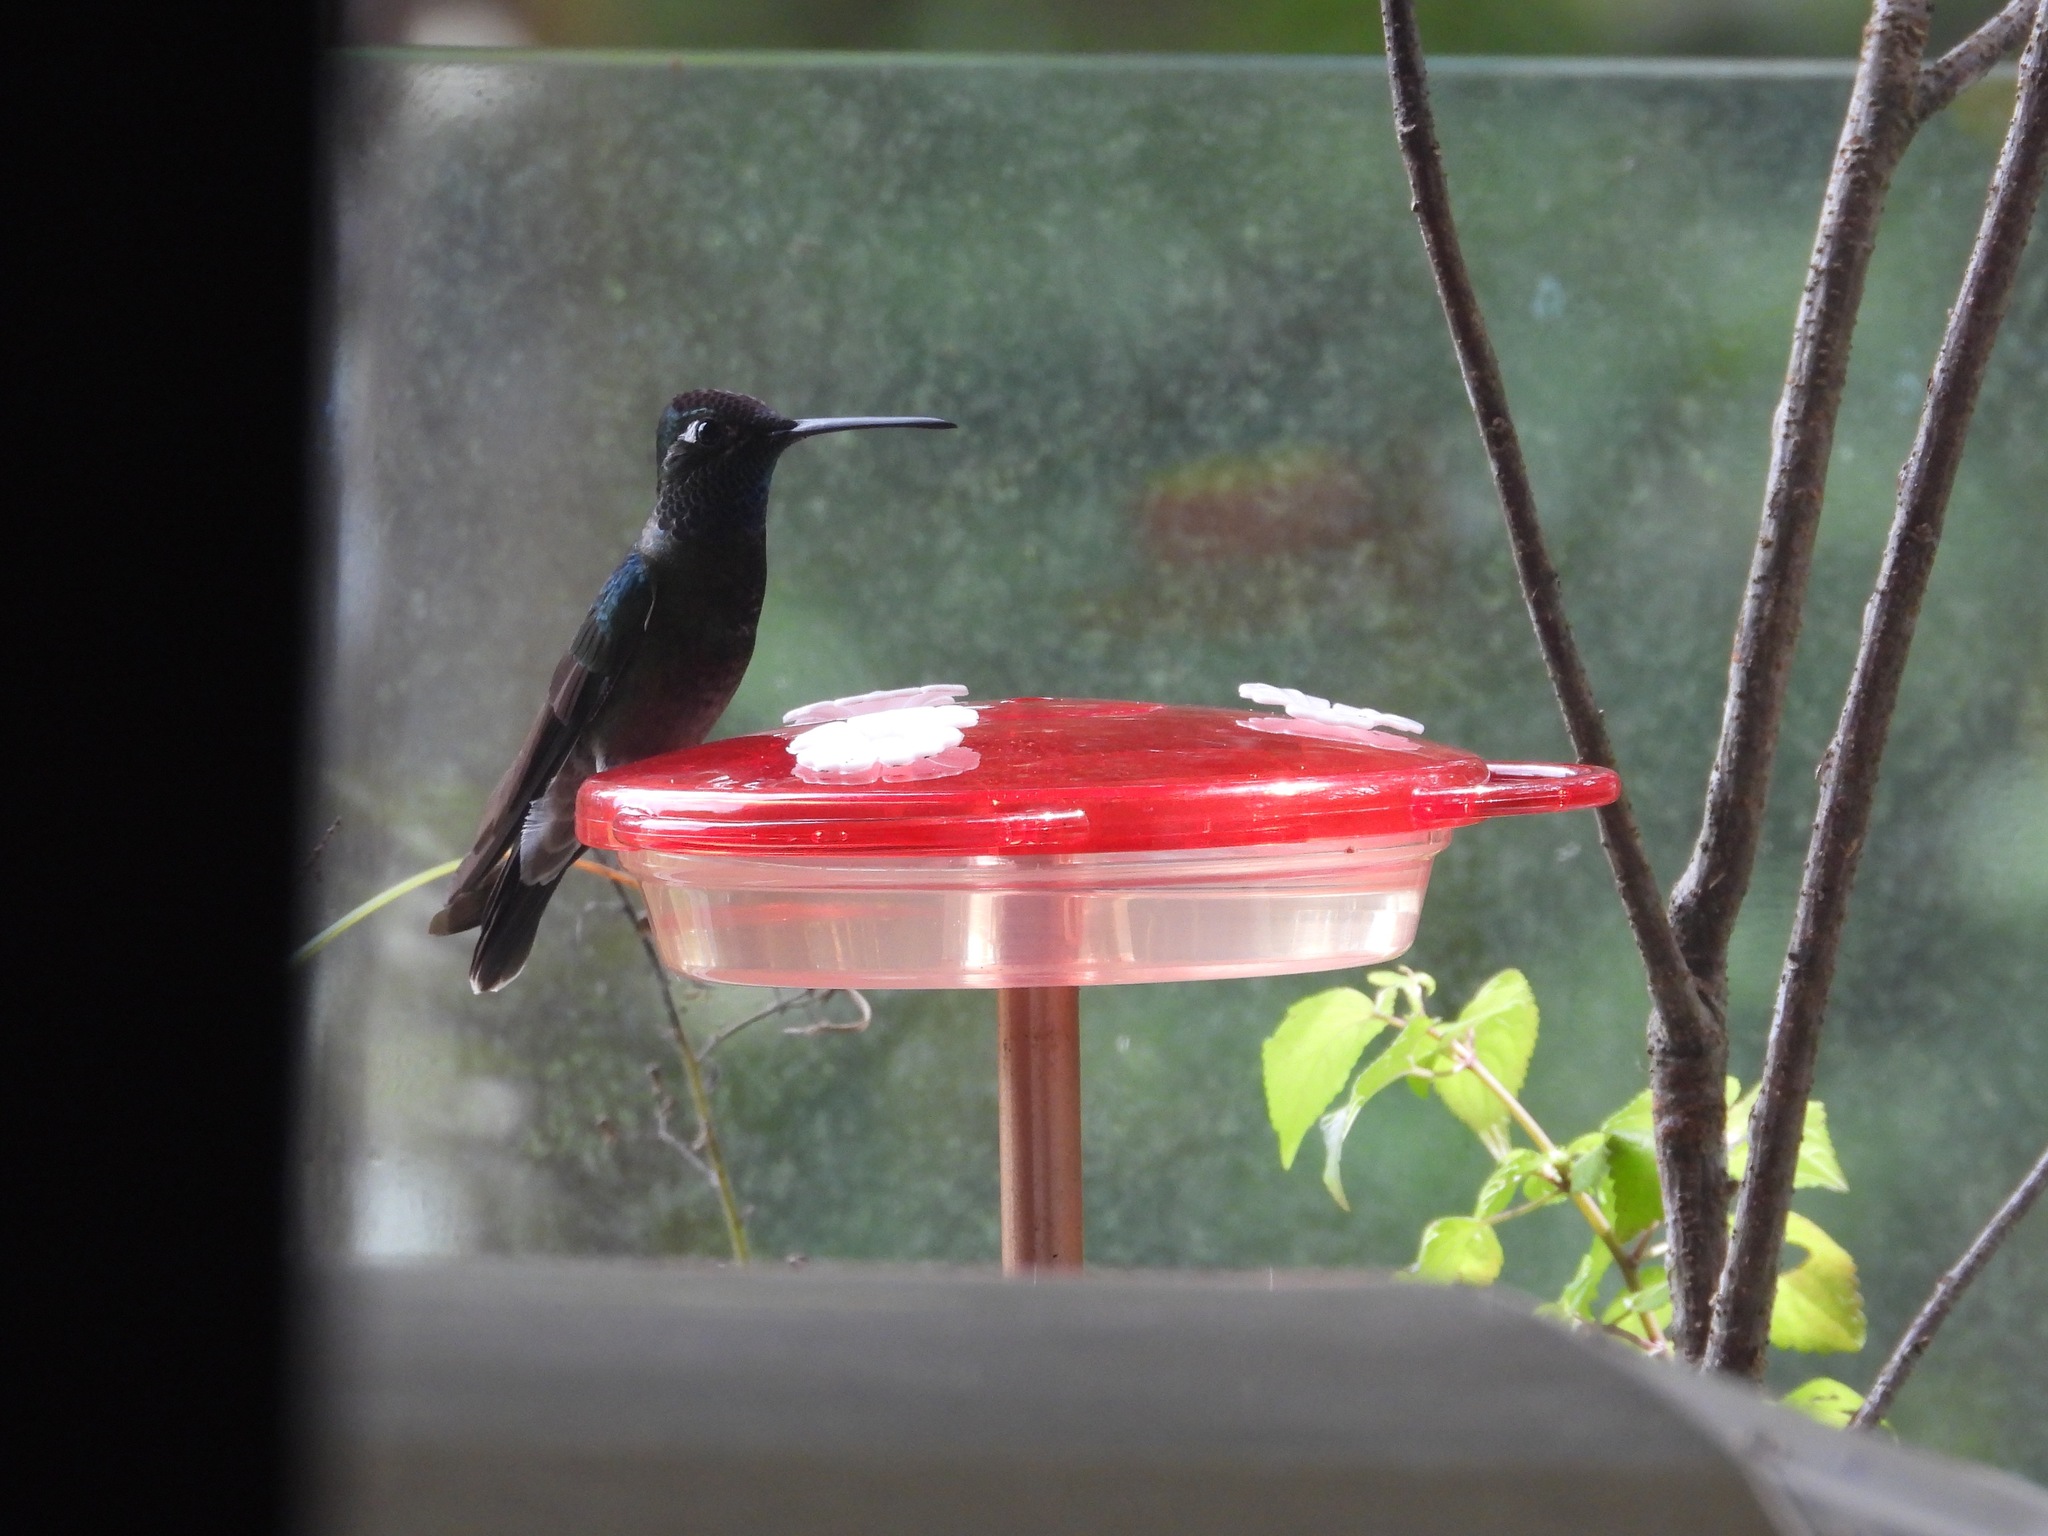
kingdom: Animalia
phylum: Chordata
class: Aves
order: Apodiformes
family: Trochilidae
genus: Eugenes
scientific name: Eugenes fulgens
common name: Magnificent hummingbird
